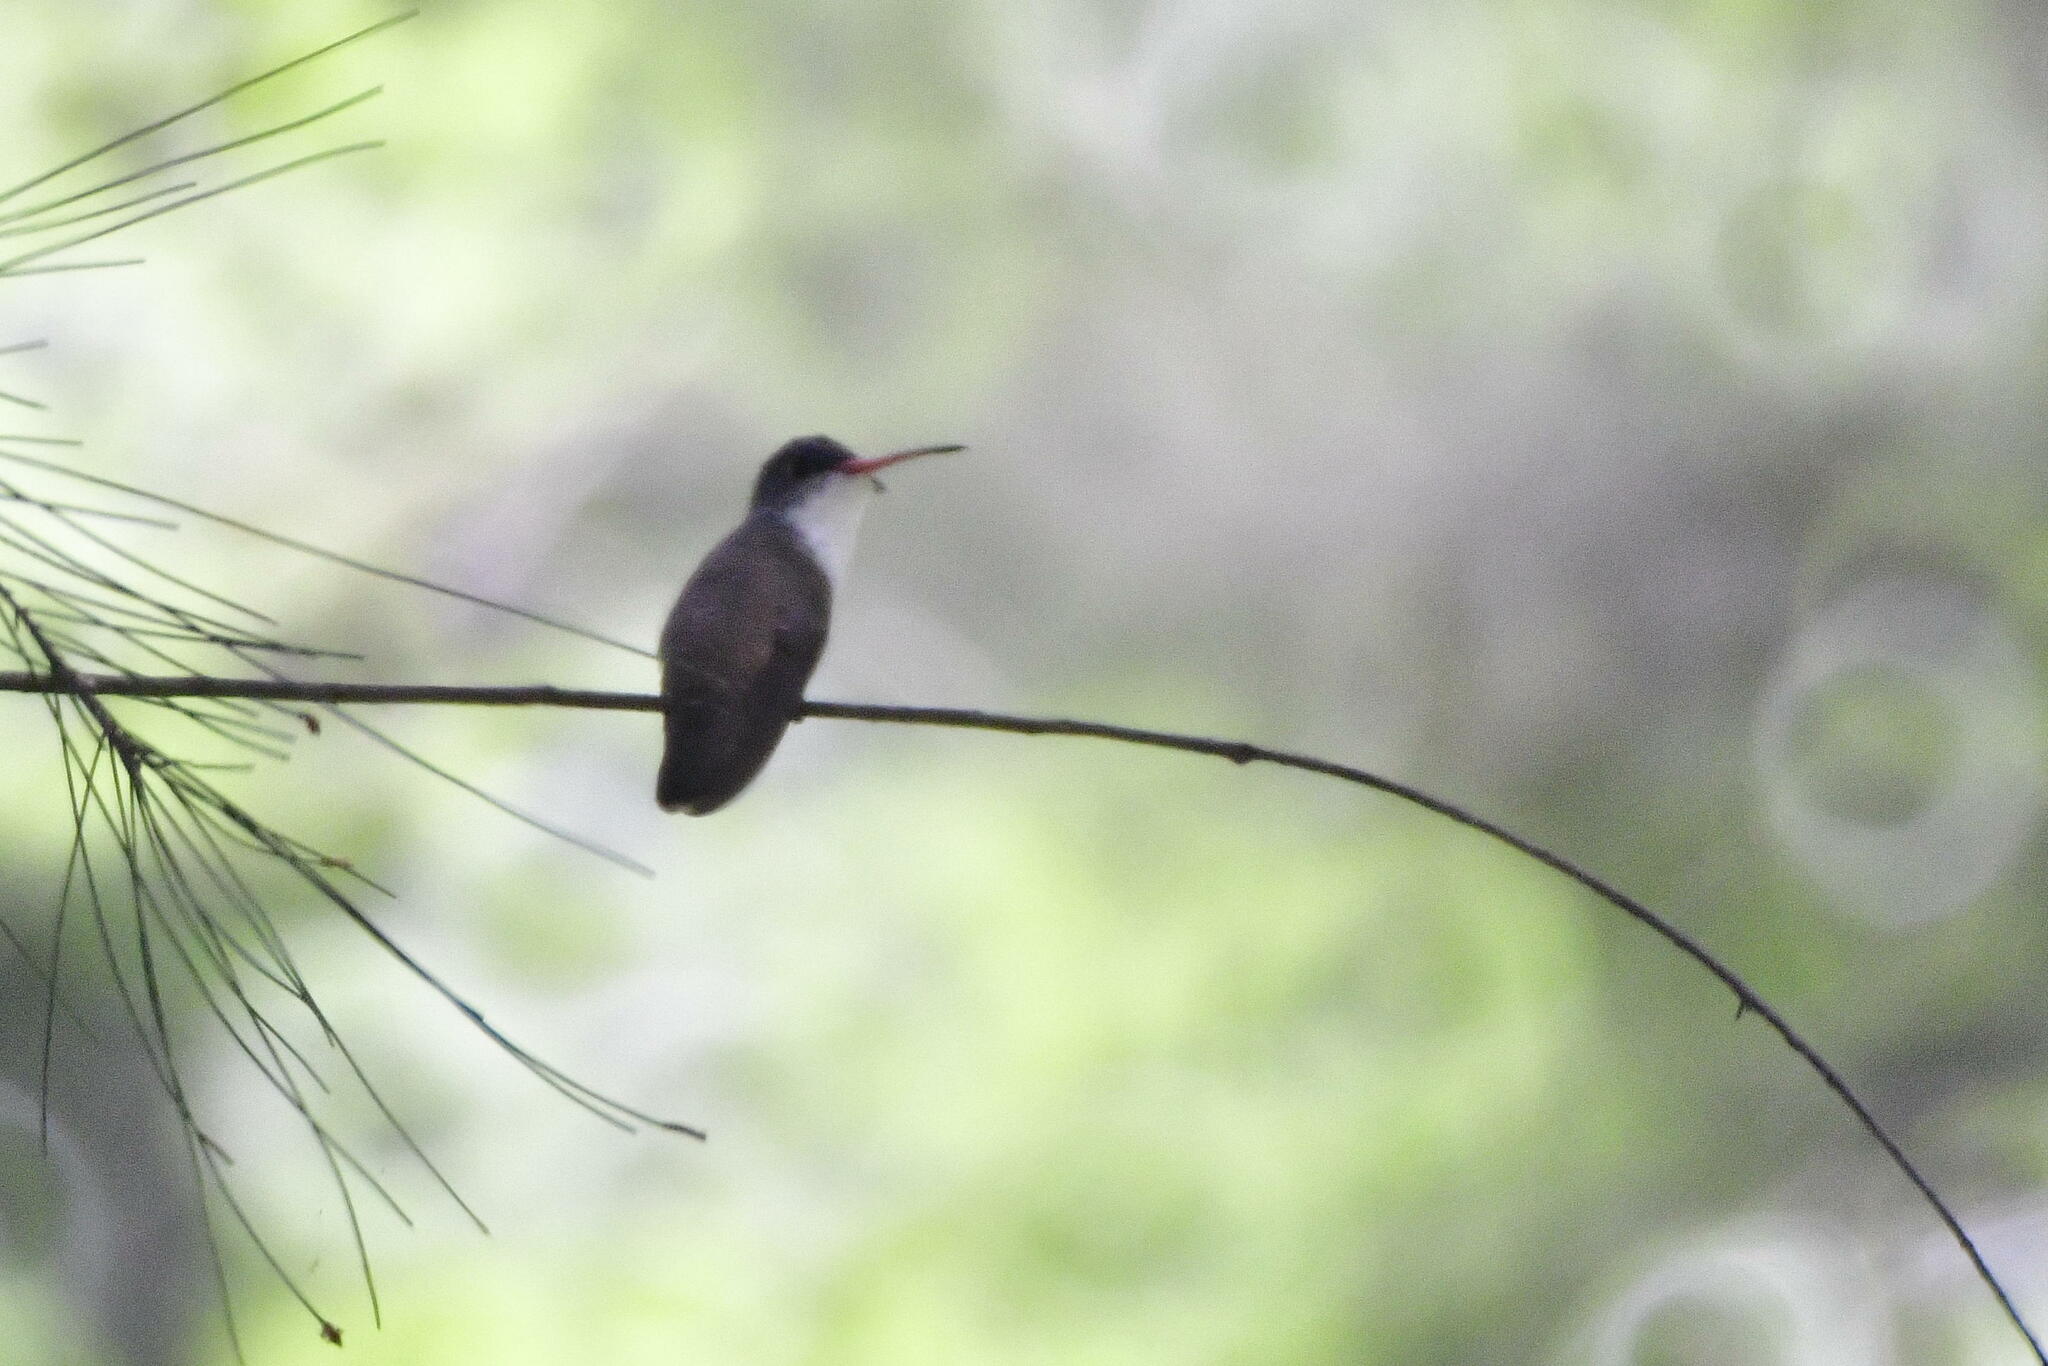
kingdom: Animalia
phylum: Chordata
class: Aves
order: Apodiformes
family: Trochilidae
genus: Leucolia
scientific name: Leucolia violiceps
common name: Violet-crowned hummingbird
